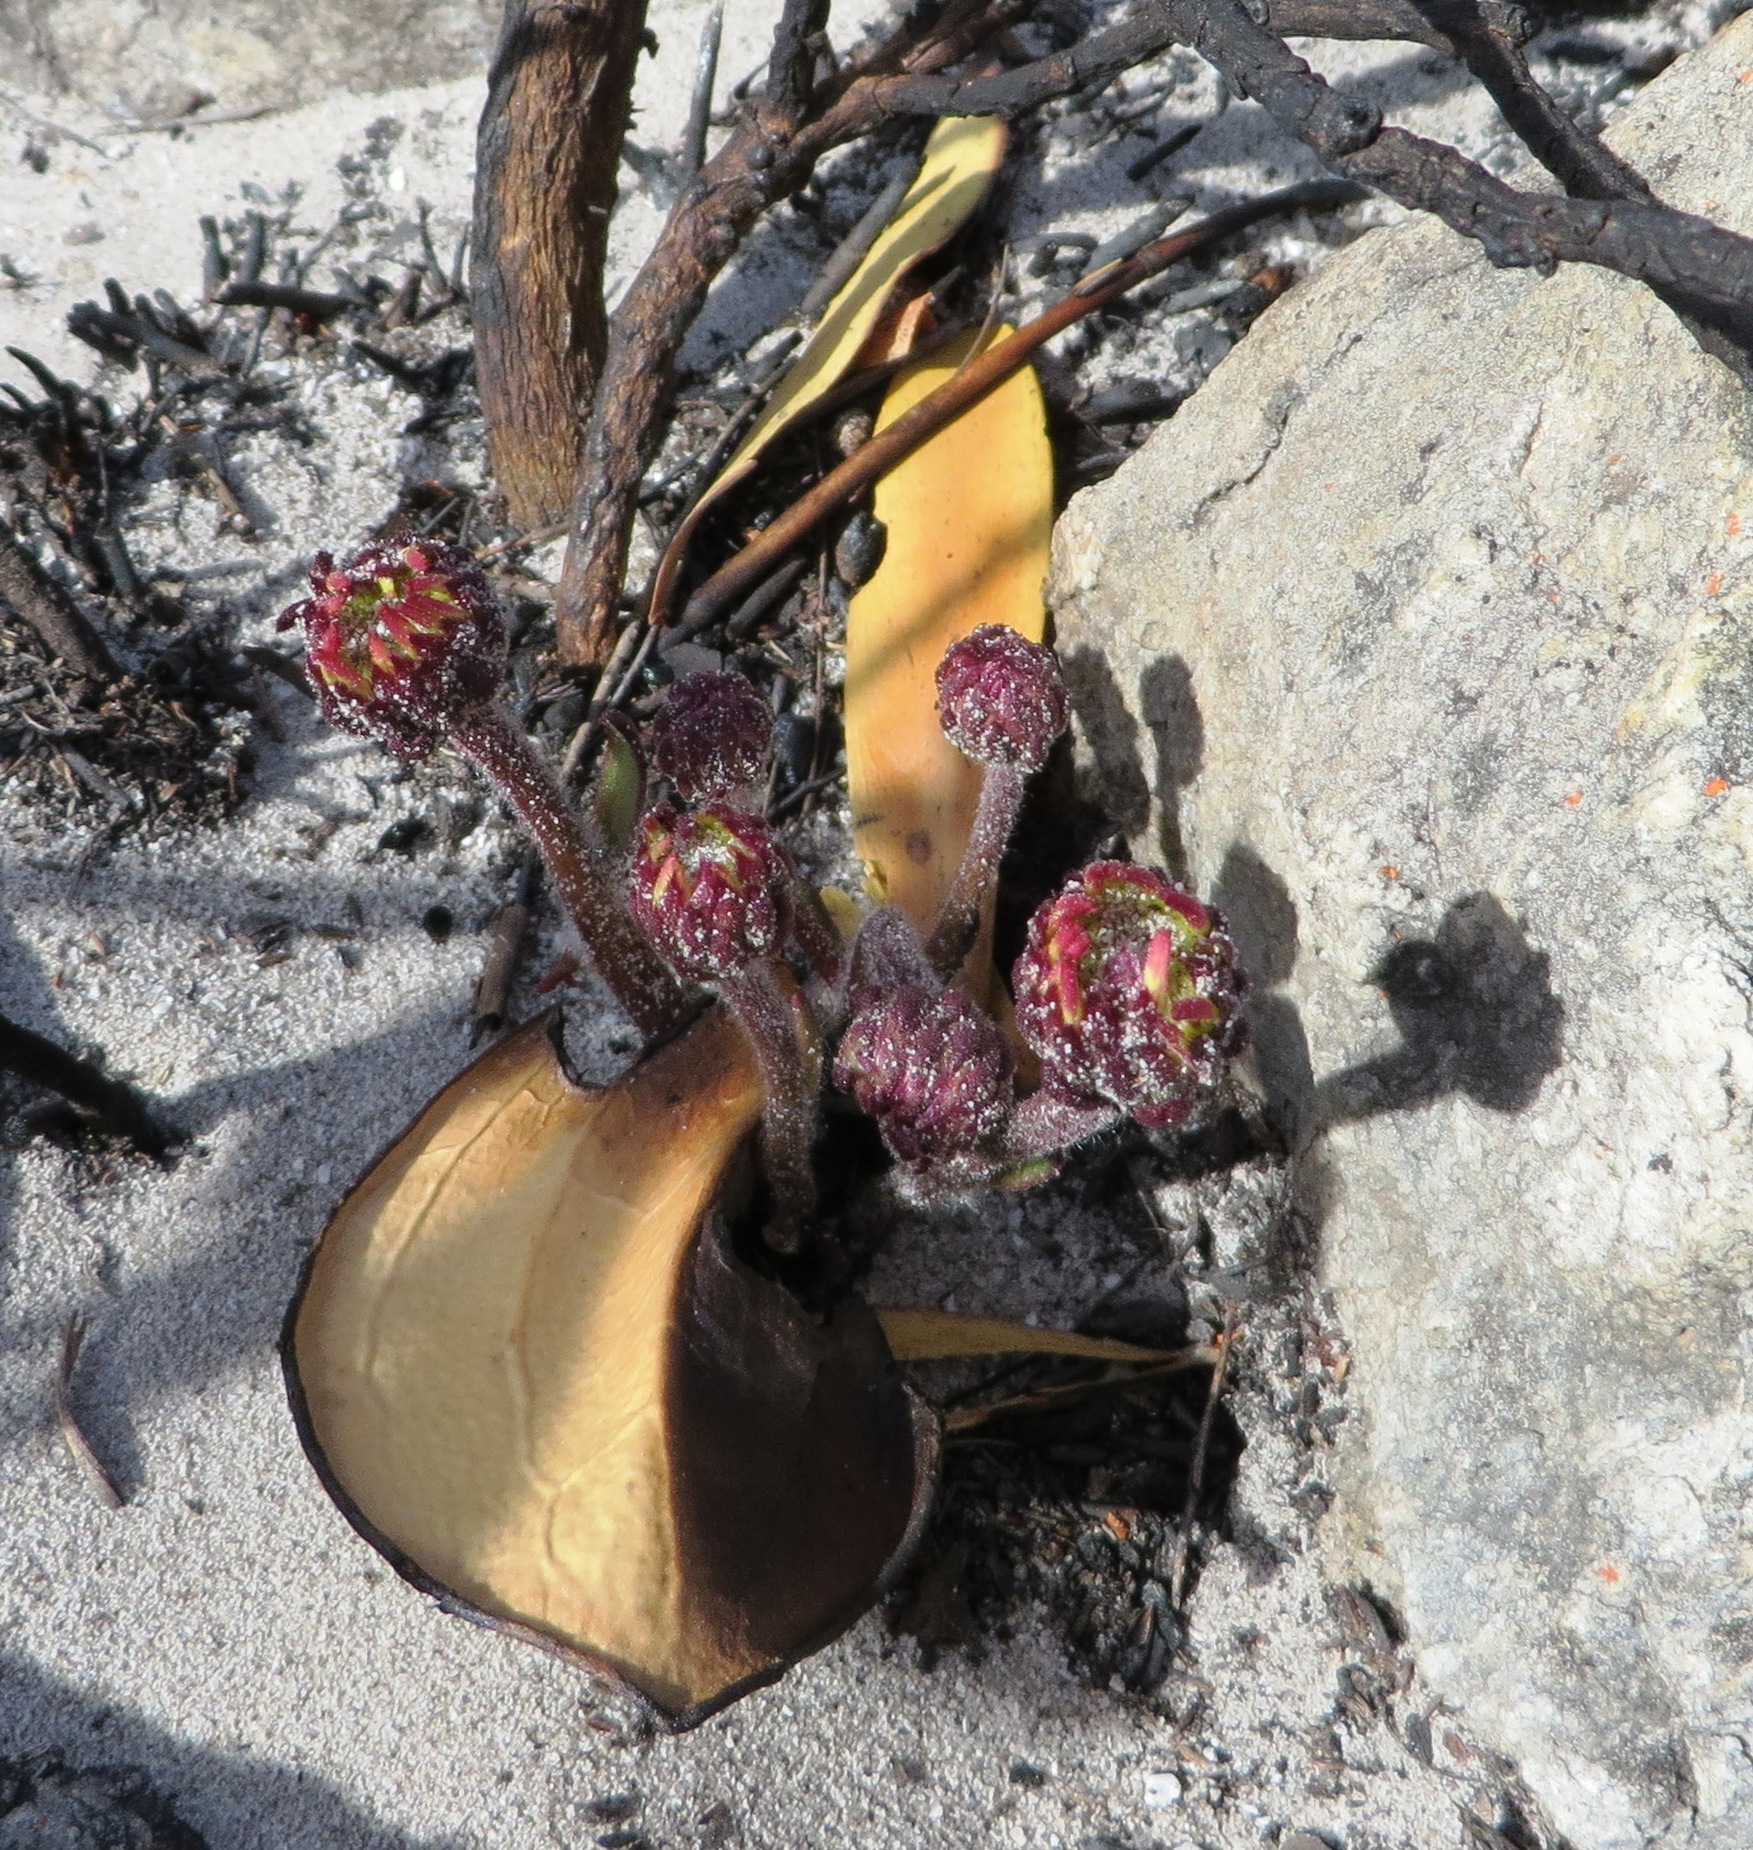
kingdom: Plantae
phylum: Tracheophyta
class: Magnoliopsida
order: Asterales
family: Asteraceae
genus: Mairia
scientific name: Mairia coriacea
